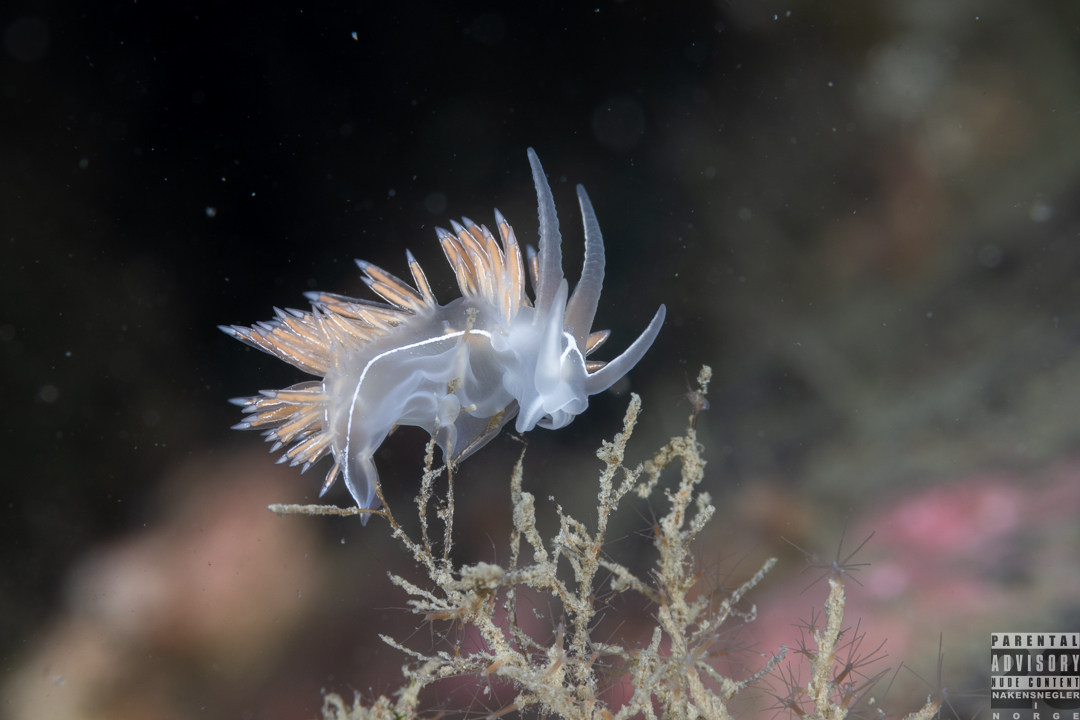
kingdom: Animalia
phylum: Mollusca
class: Gastropoda
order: Nudibranchia
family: Coryphellidae
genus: Coryphella
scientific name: Coryphella chriskaugei
